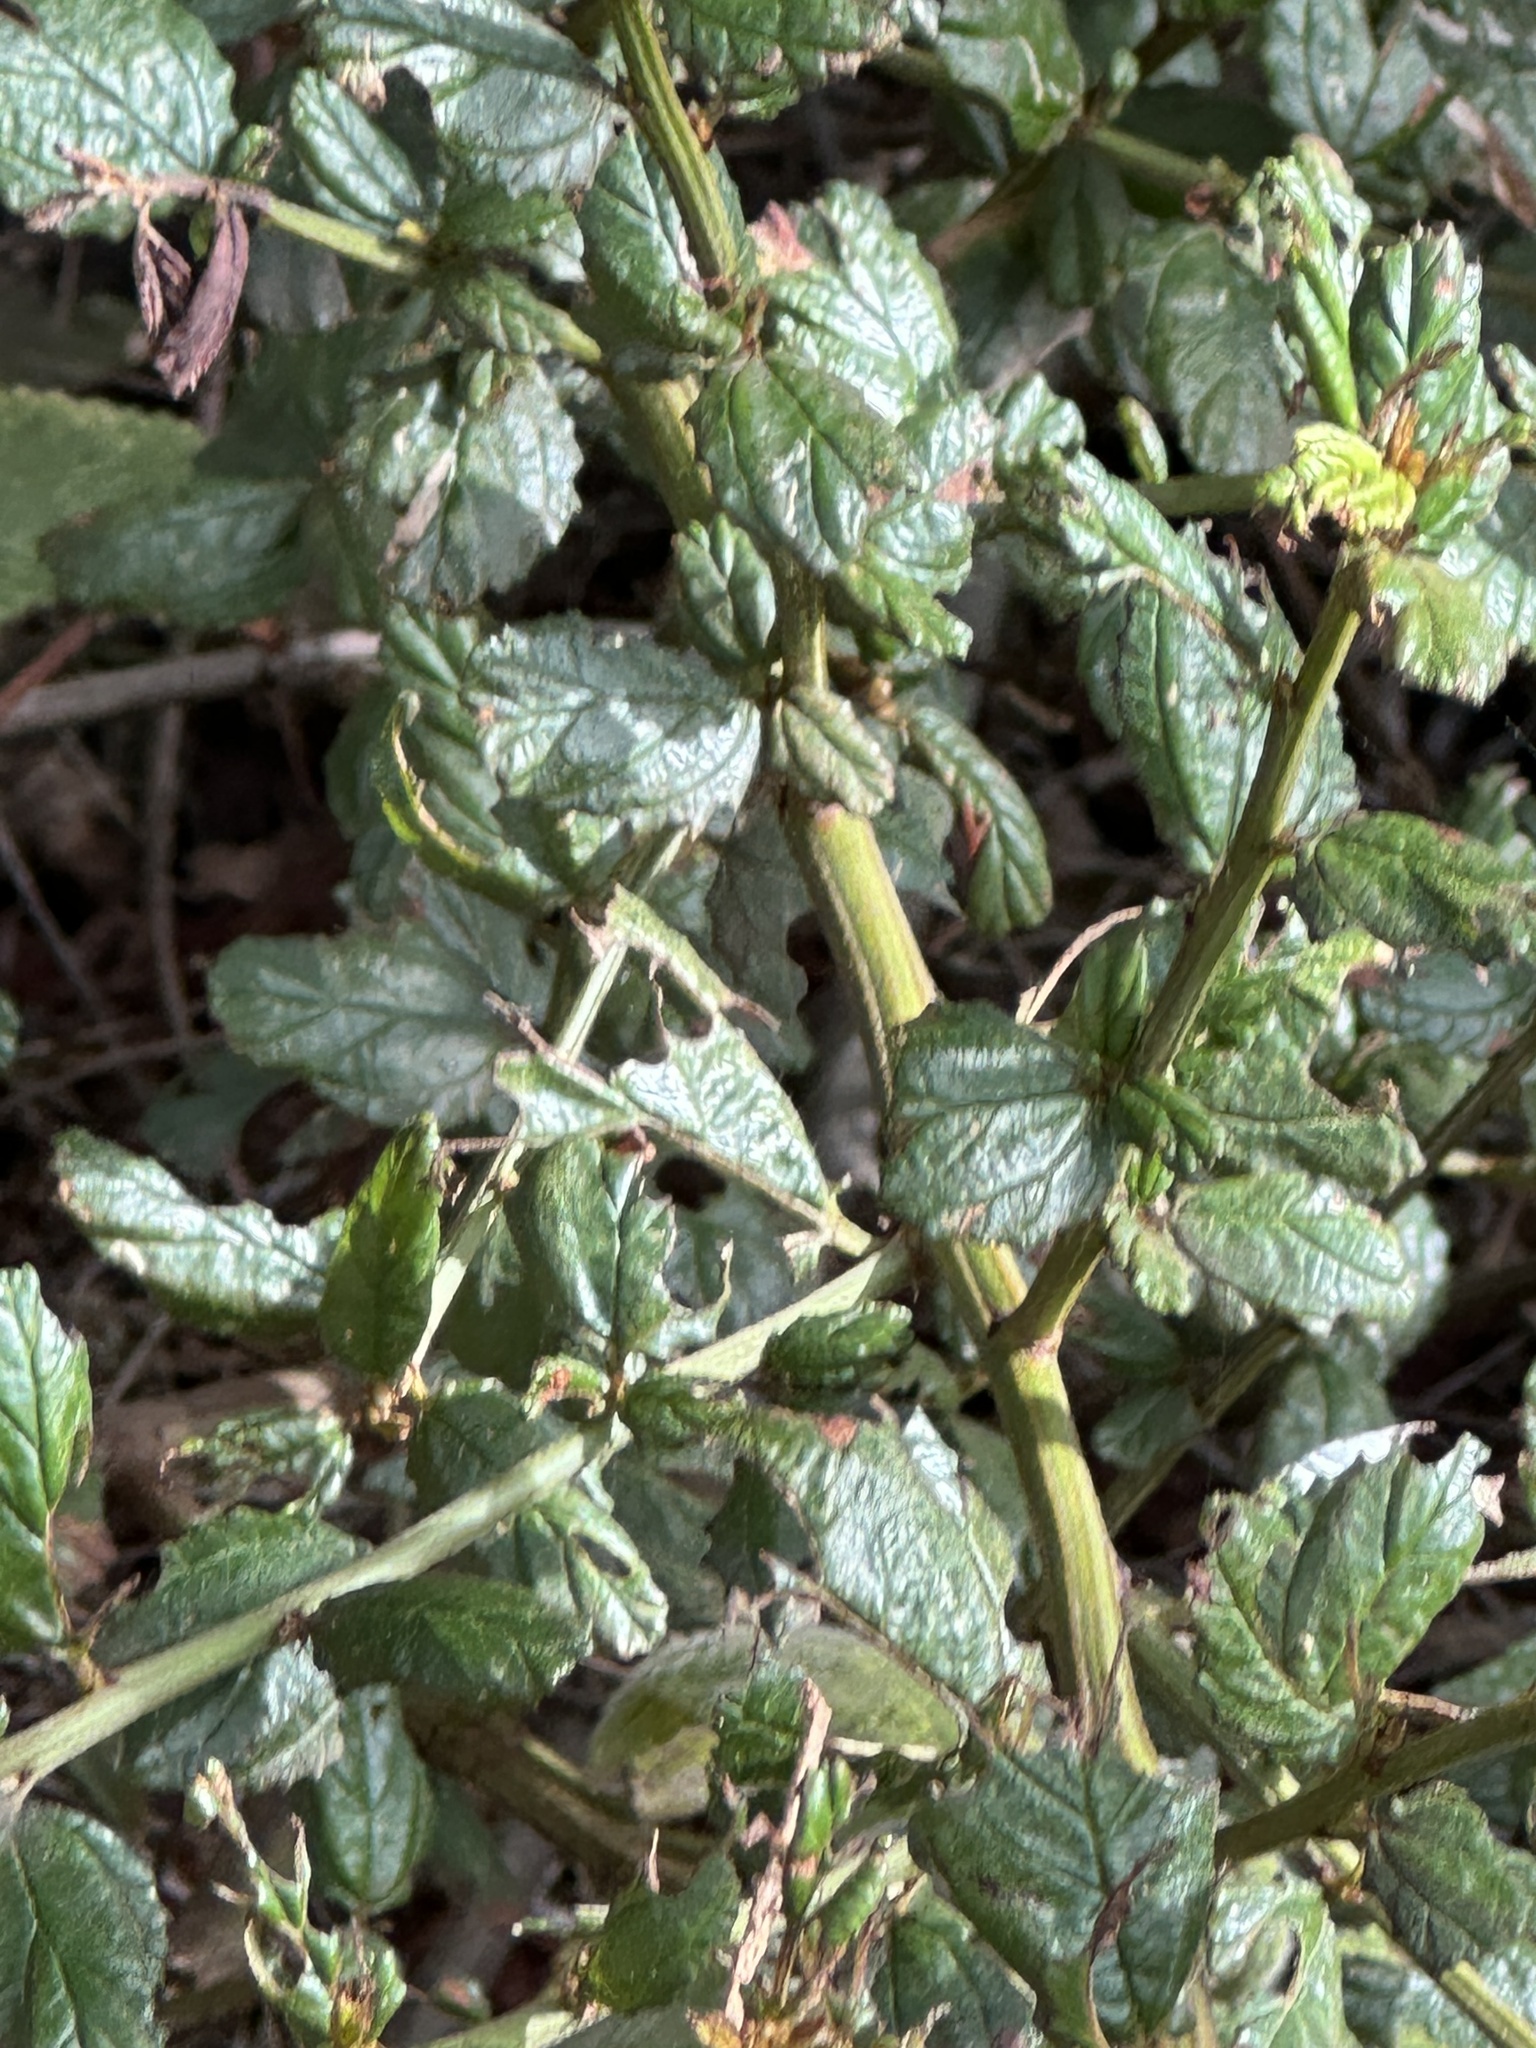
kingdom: Plantae
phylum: Tracheophyta
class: Magnoliopsida
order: Rosales
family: Rhamnaceae
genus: Ceanothus
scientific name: Ceanothus thyrsiflorus
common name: California-lilac
